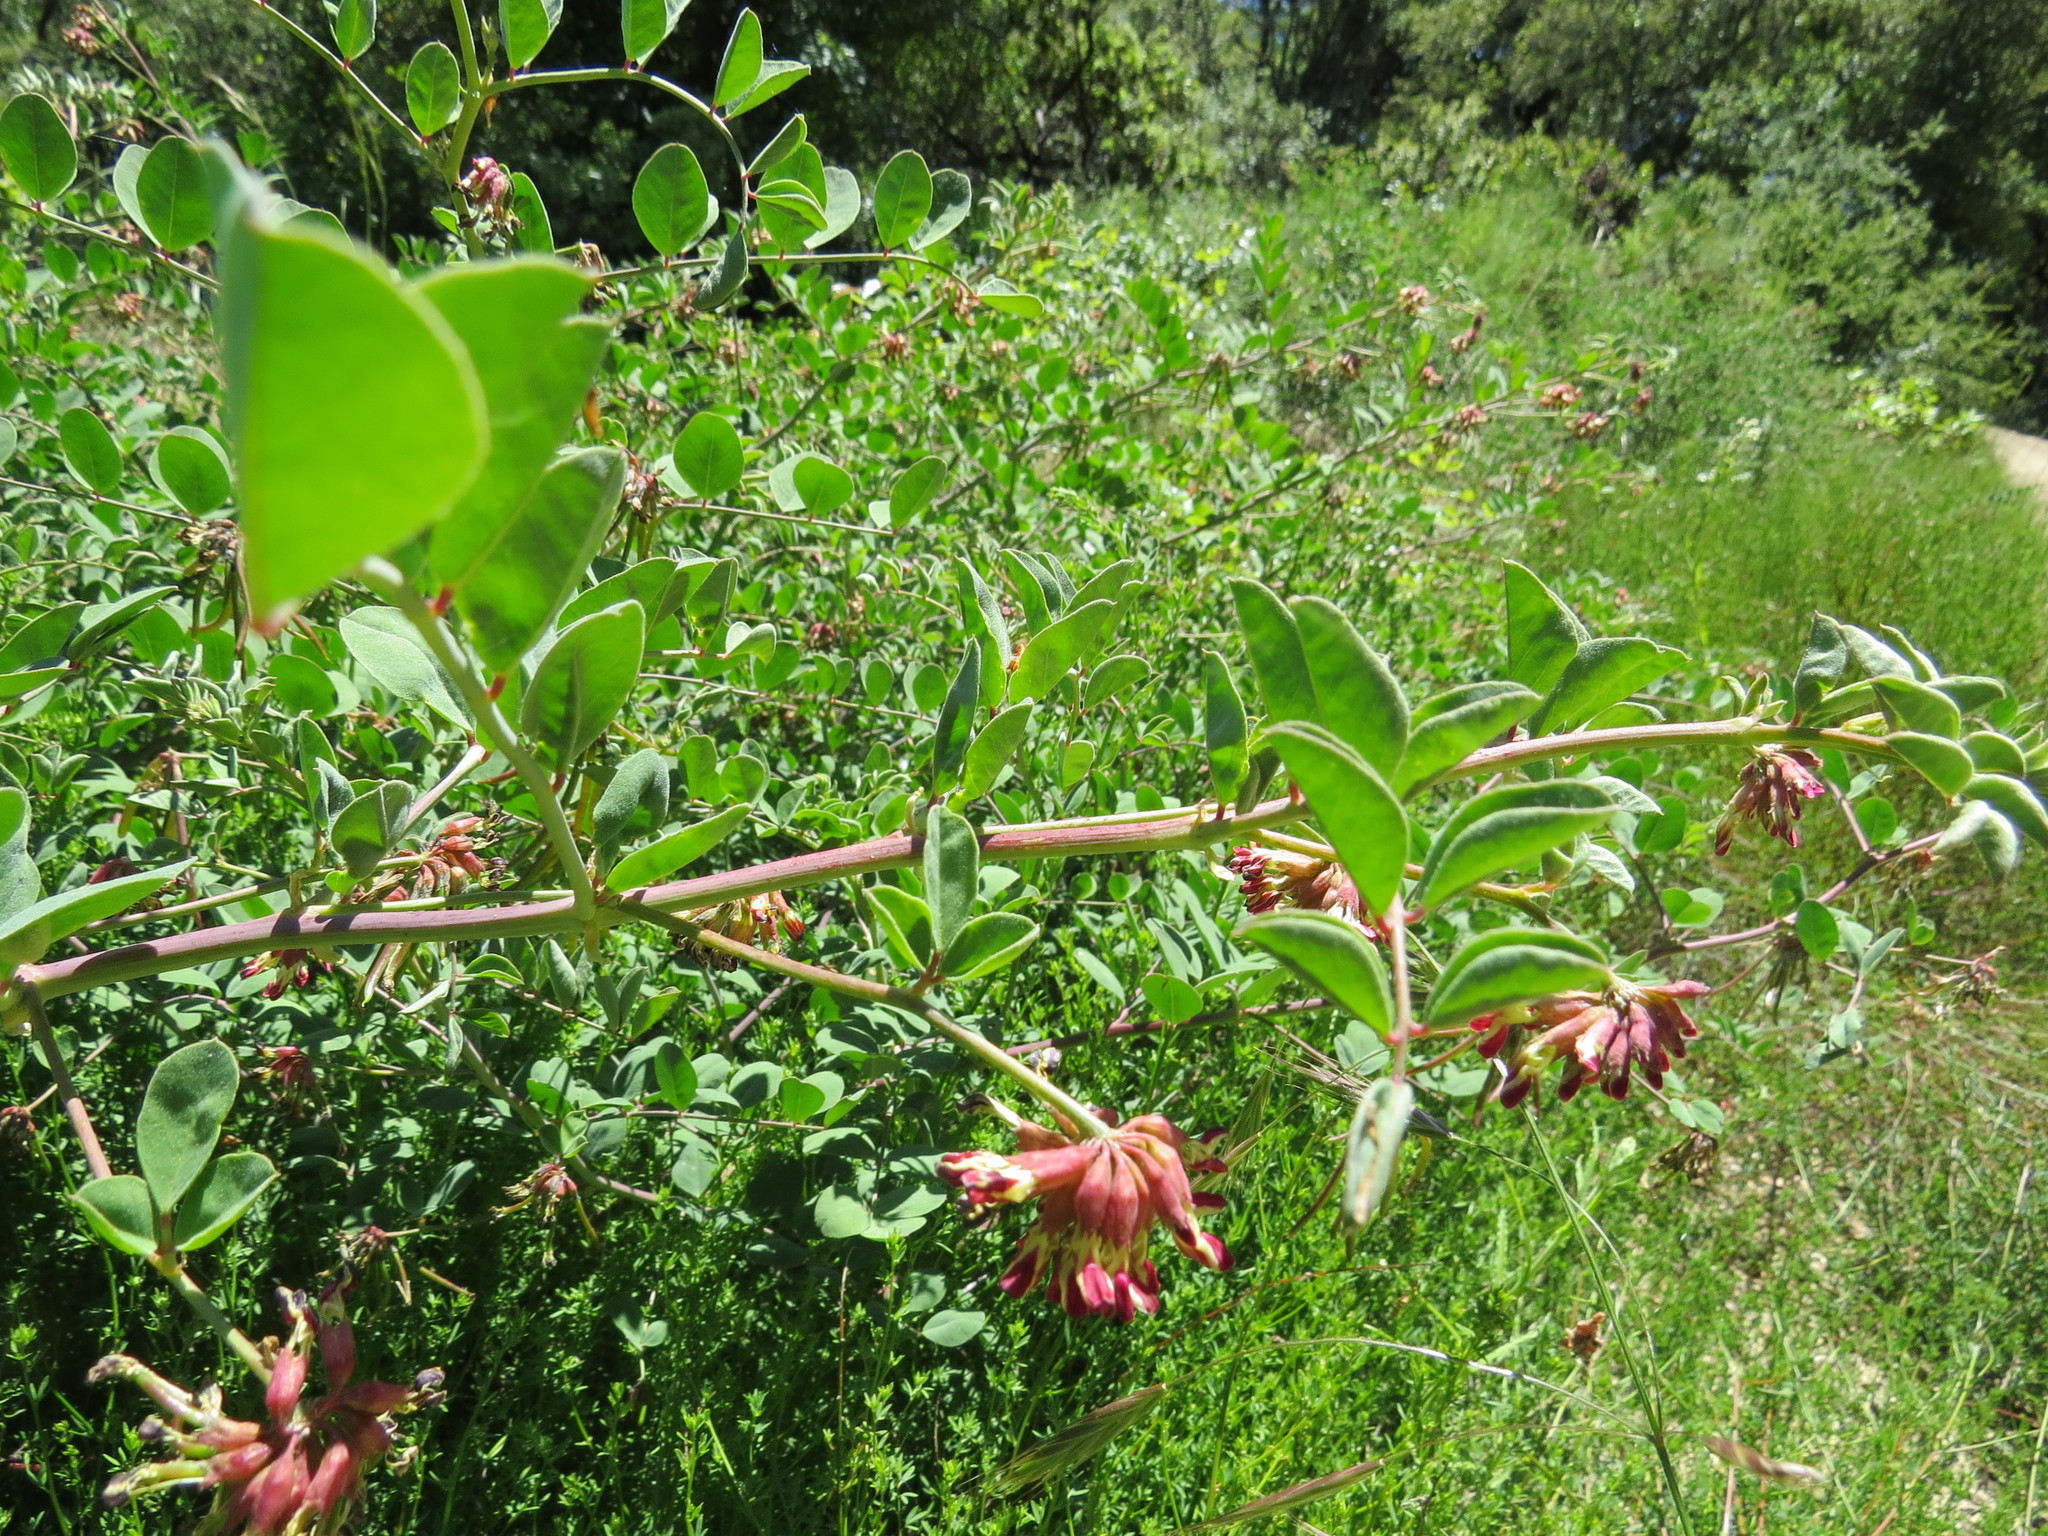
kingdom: Plantae
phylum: Tracheophyta
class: Magnoliopsida
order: Fabales
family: Fabaceae
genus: Hosackia
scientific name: Hosackia crassifolia
